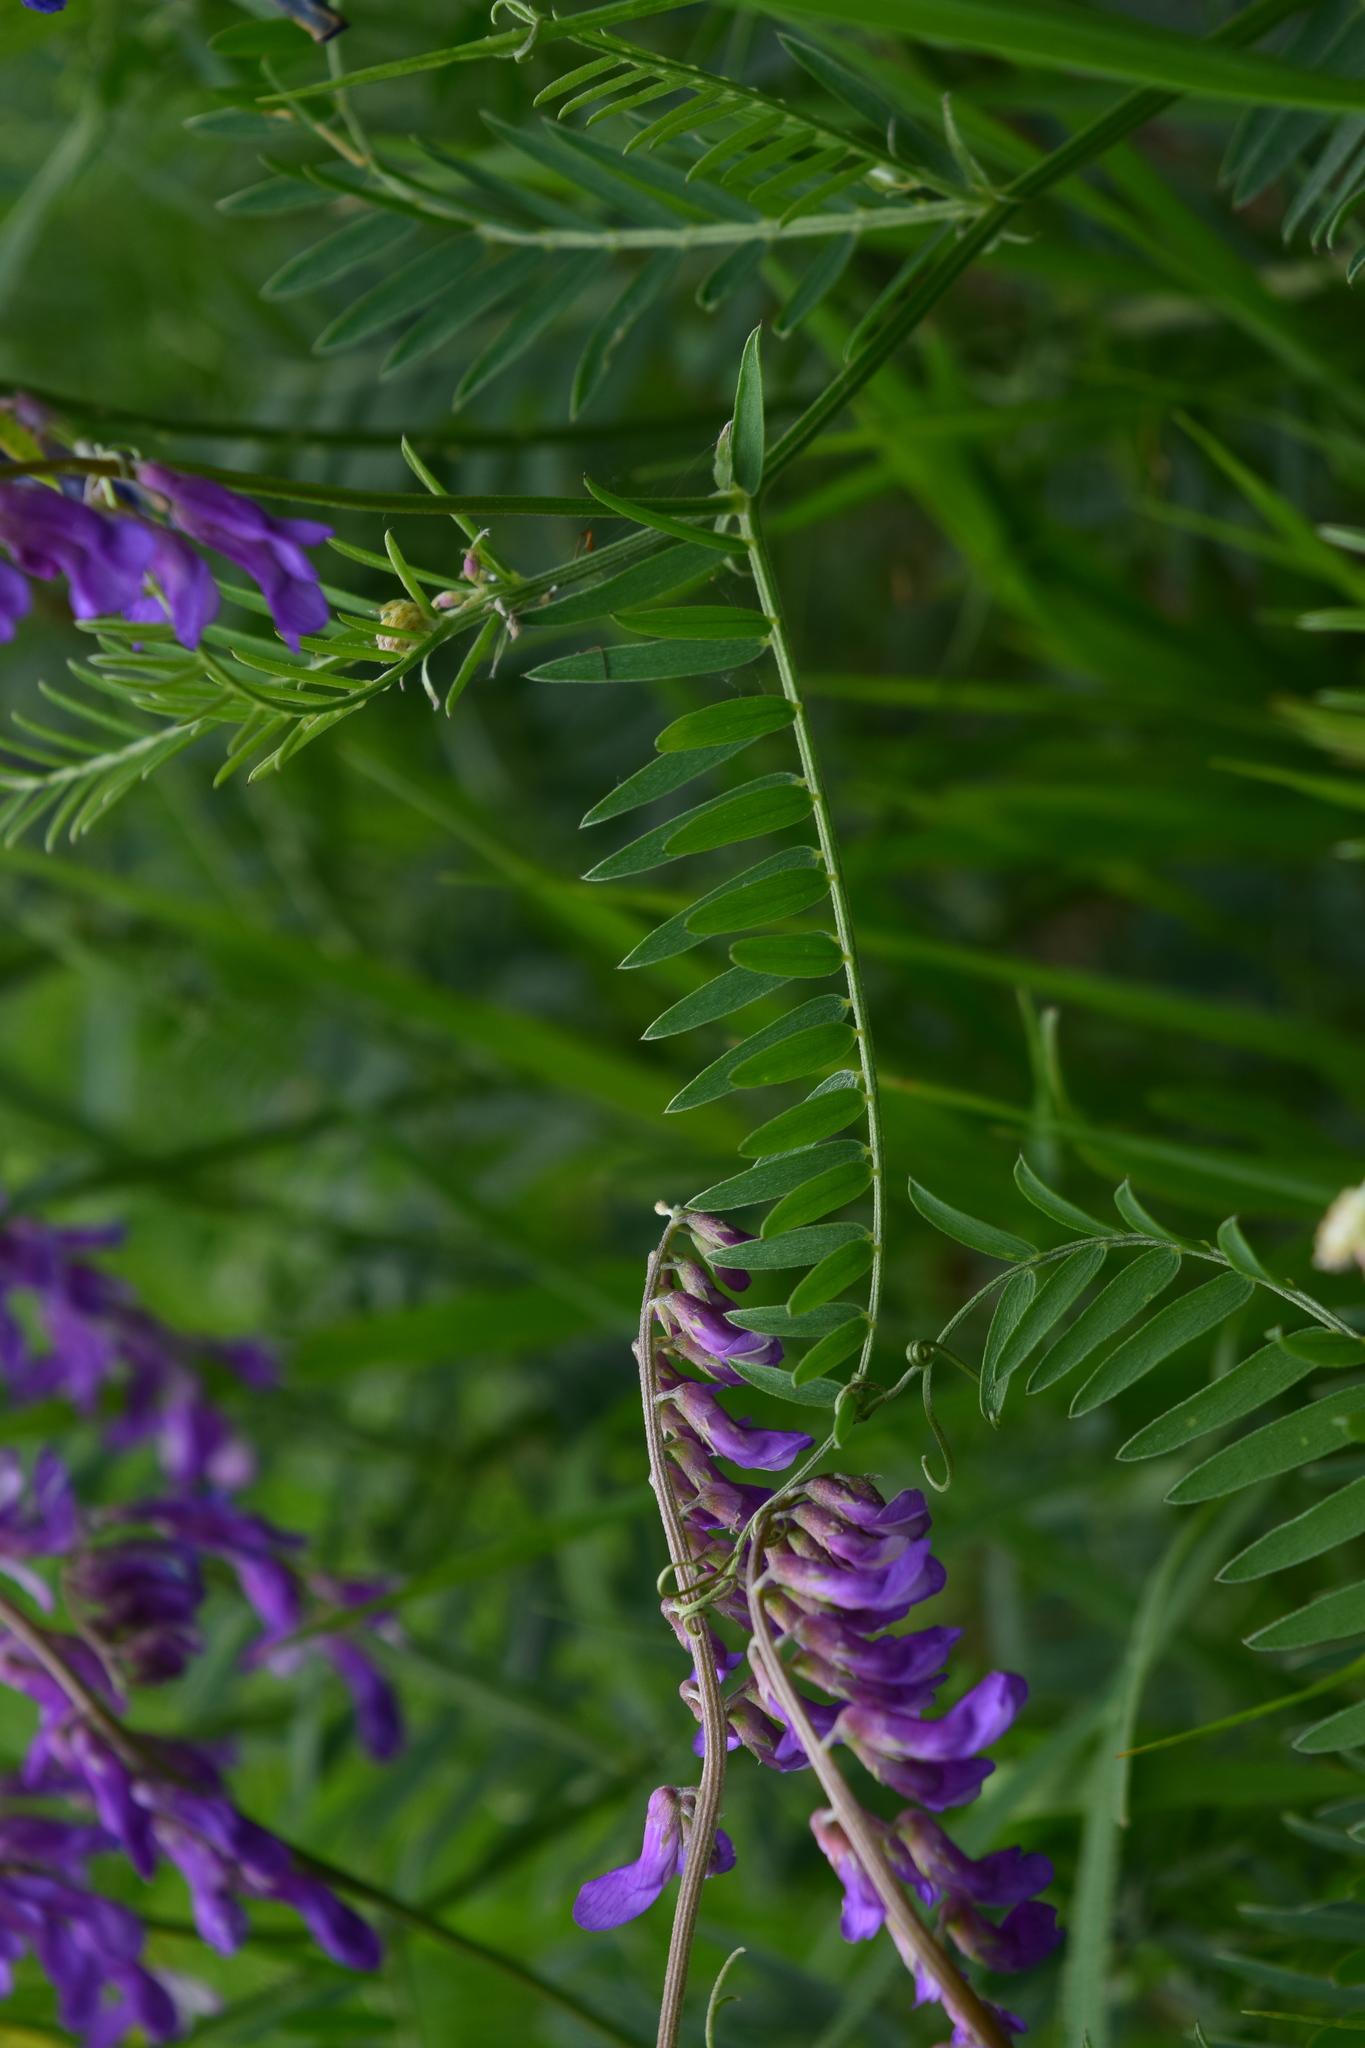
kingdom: Plantae
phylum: Tracheophyta
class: Magnoliopsida
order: Fabales
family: Fabaceae
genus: Vicia
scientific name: Vicia tenuifolia
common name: Fine-leaved vetch
